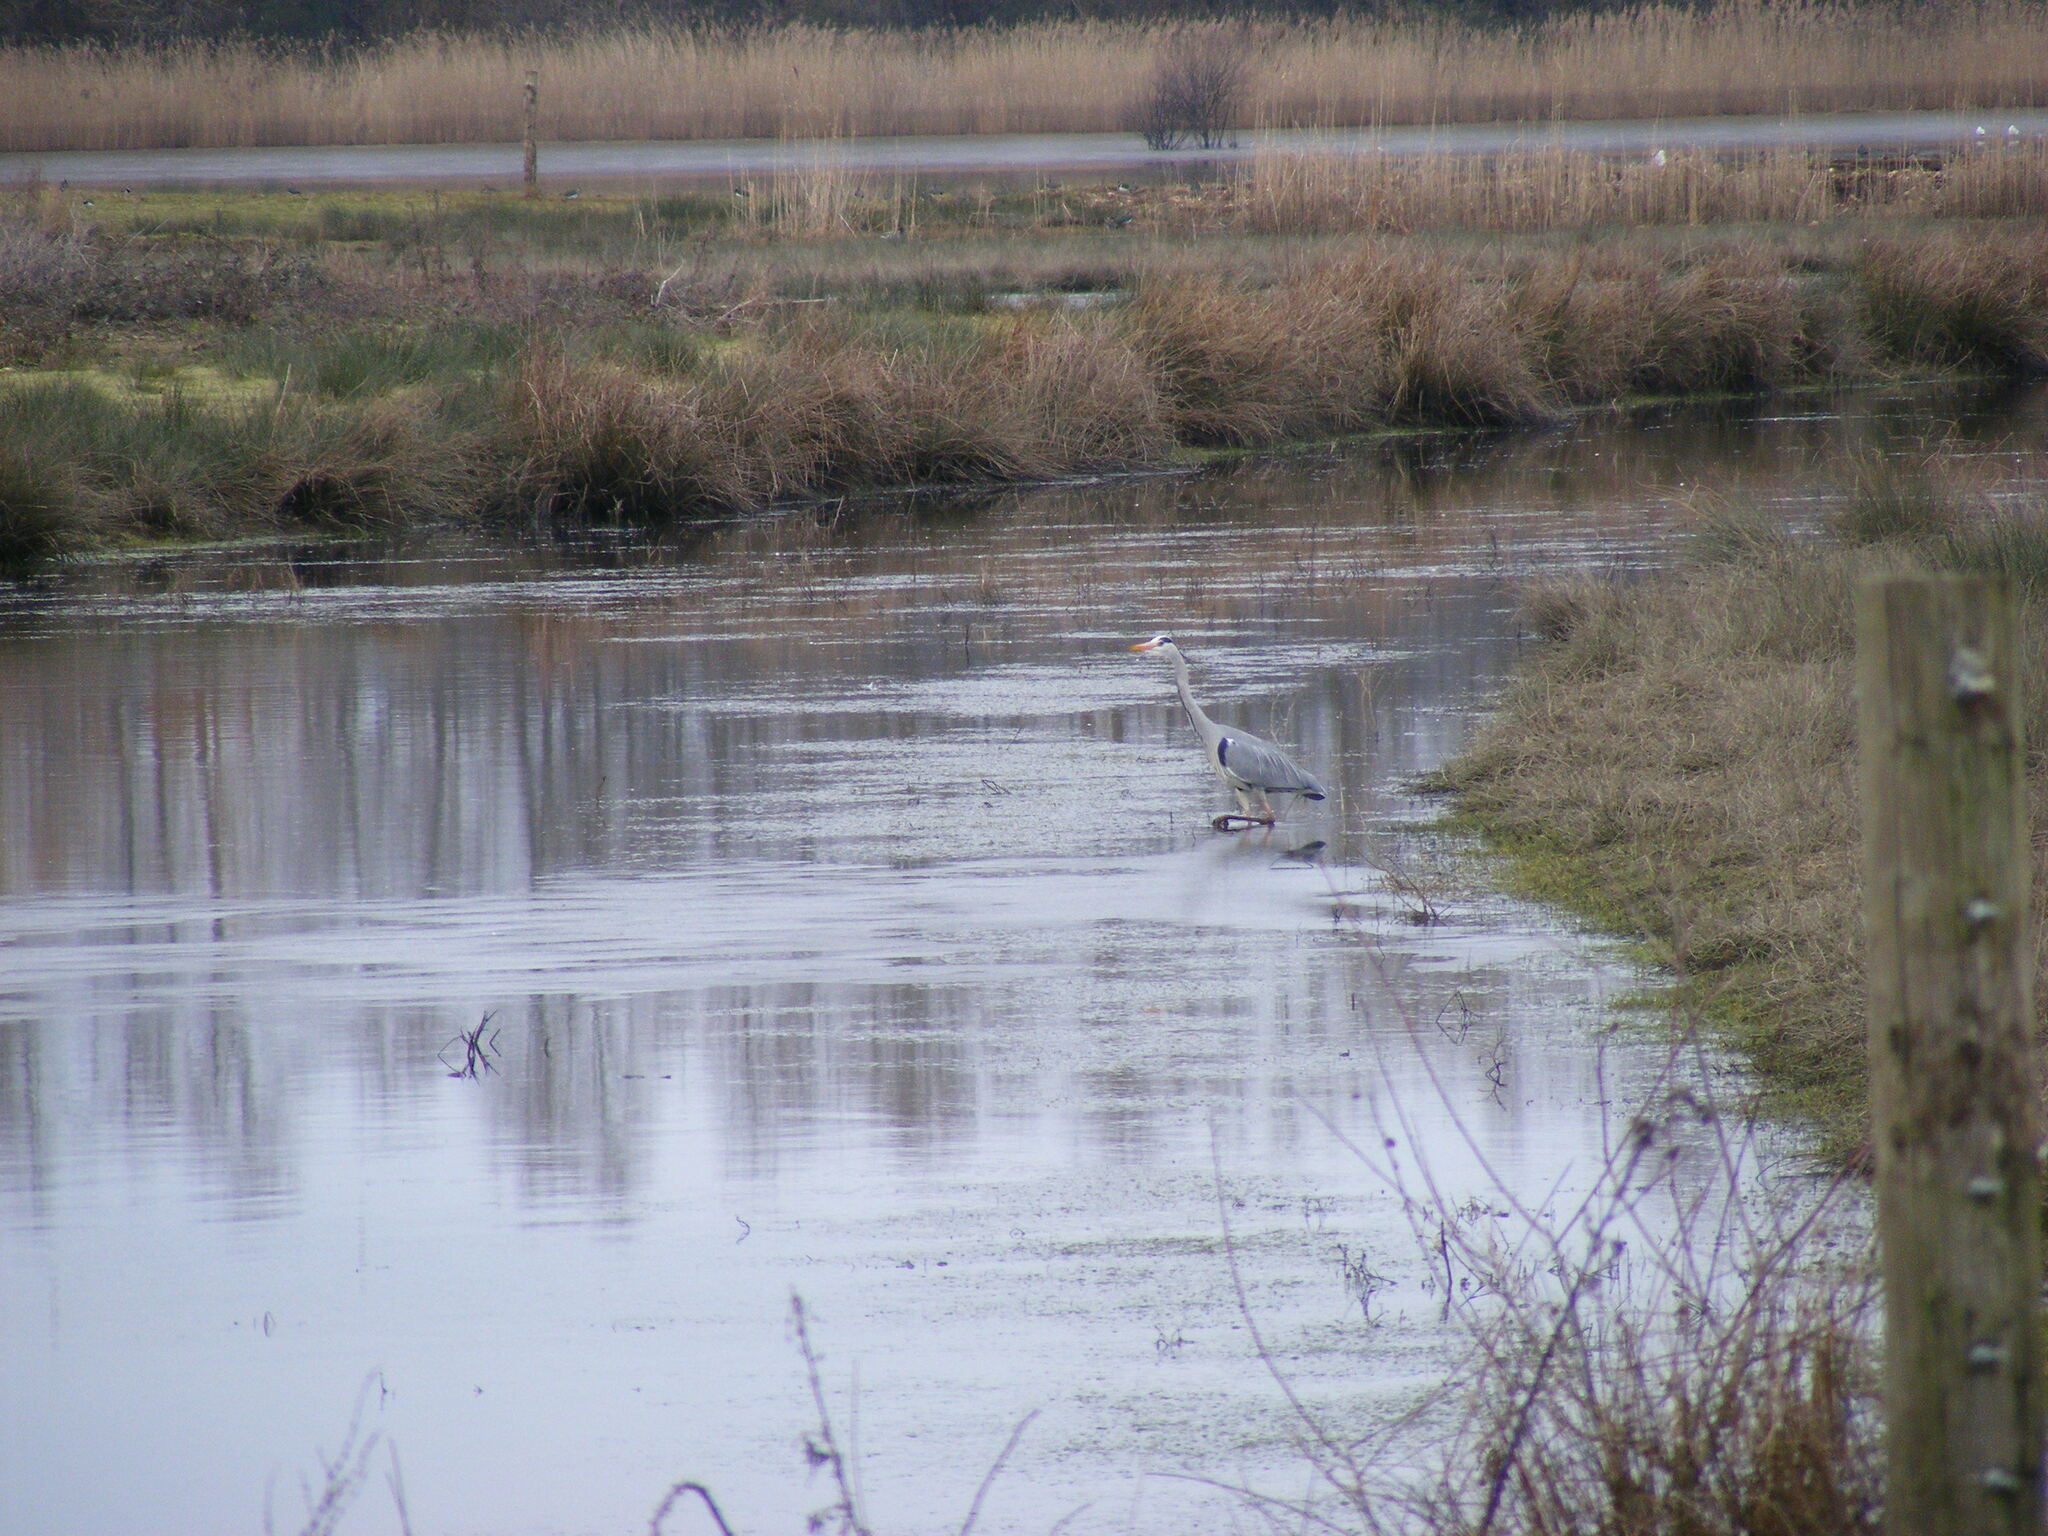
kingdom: Animalia
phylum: Chordata
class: Aves
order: Pelecaniformes
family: Ardeidae
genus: Ardea
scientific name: Ardea cinerea
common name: Grey heron
